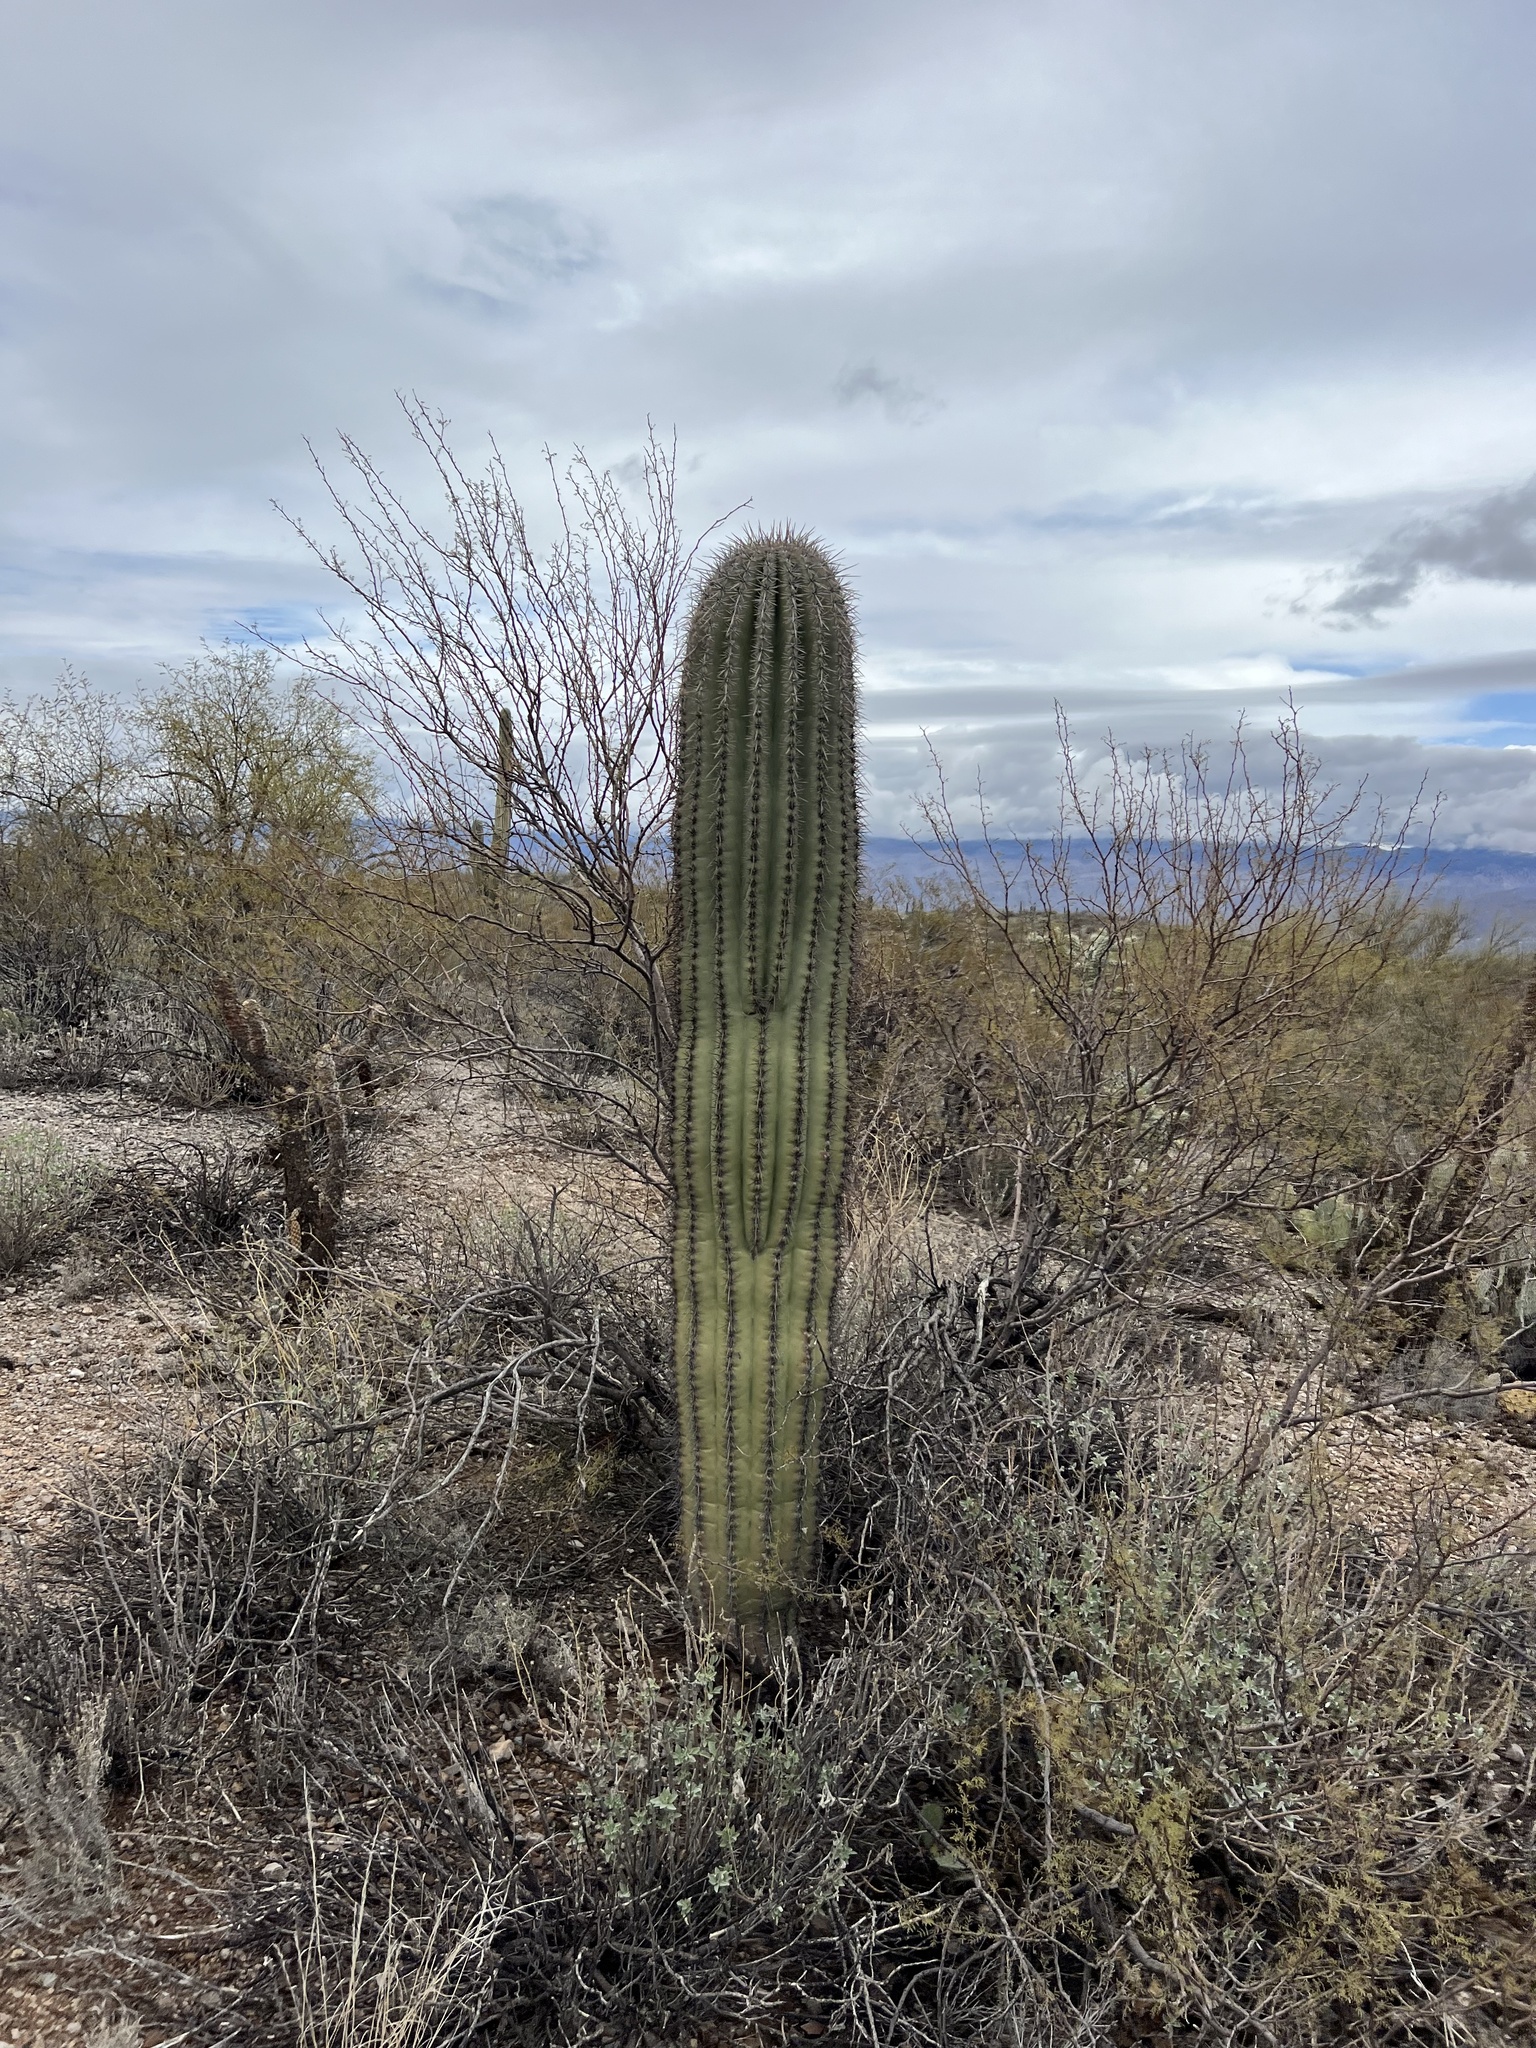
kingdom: Plantae
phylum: Tracheophyta
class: Magnoliopsida
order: Caryophyllales
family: Cactaceae
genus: Carnegiea
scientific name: Carnegiea gigantea
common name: Saguaro
